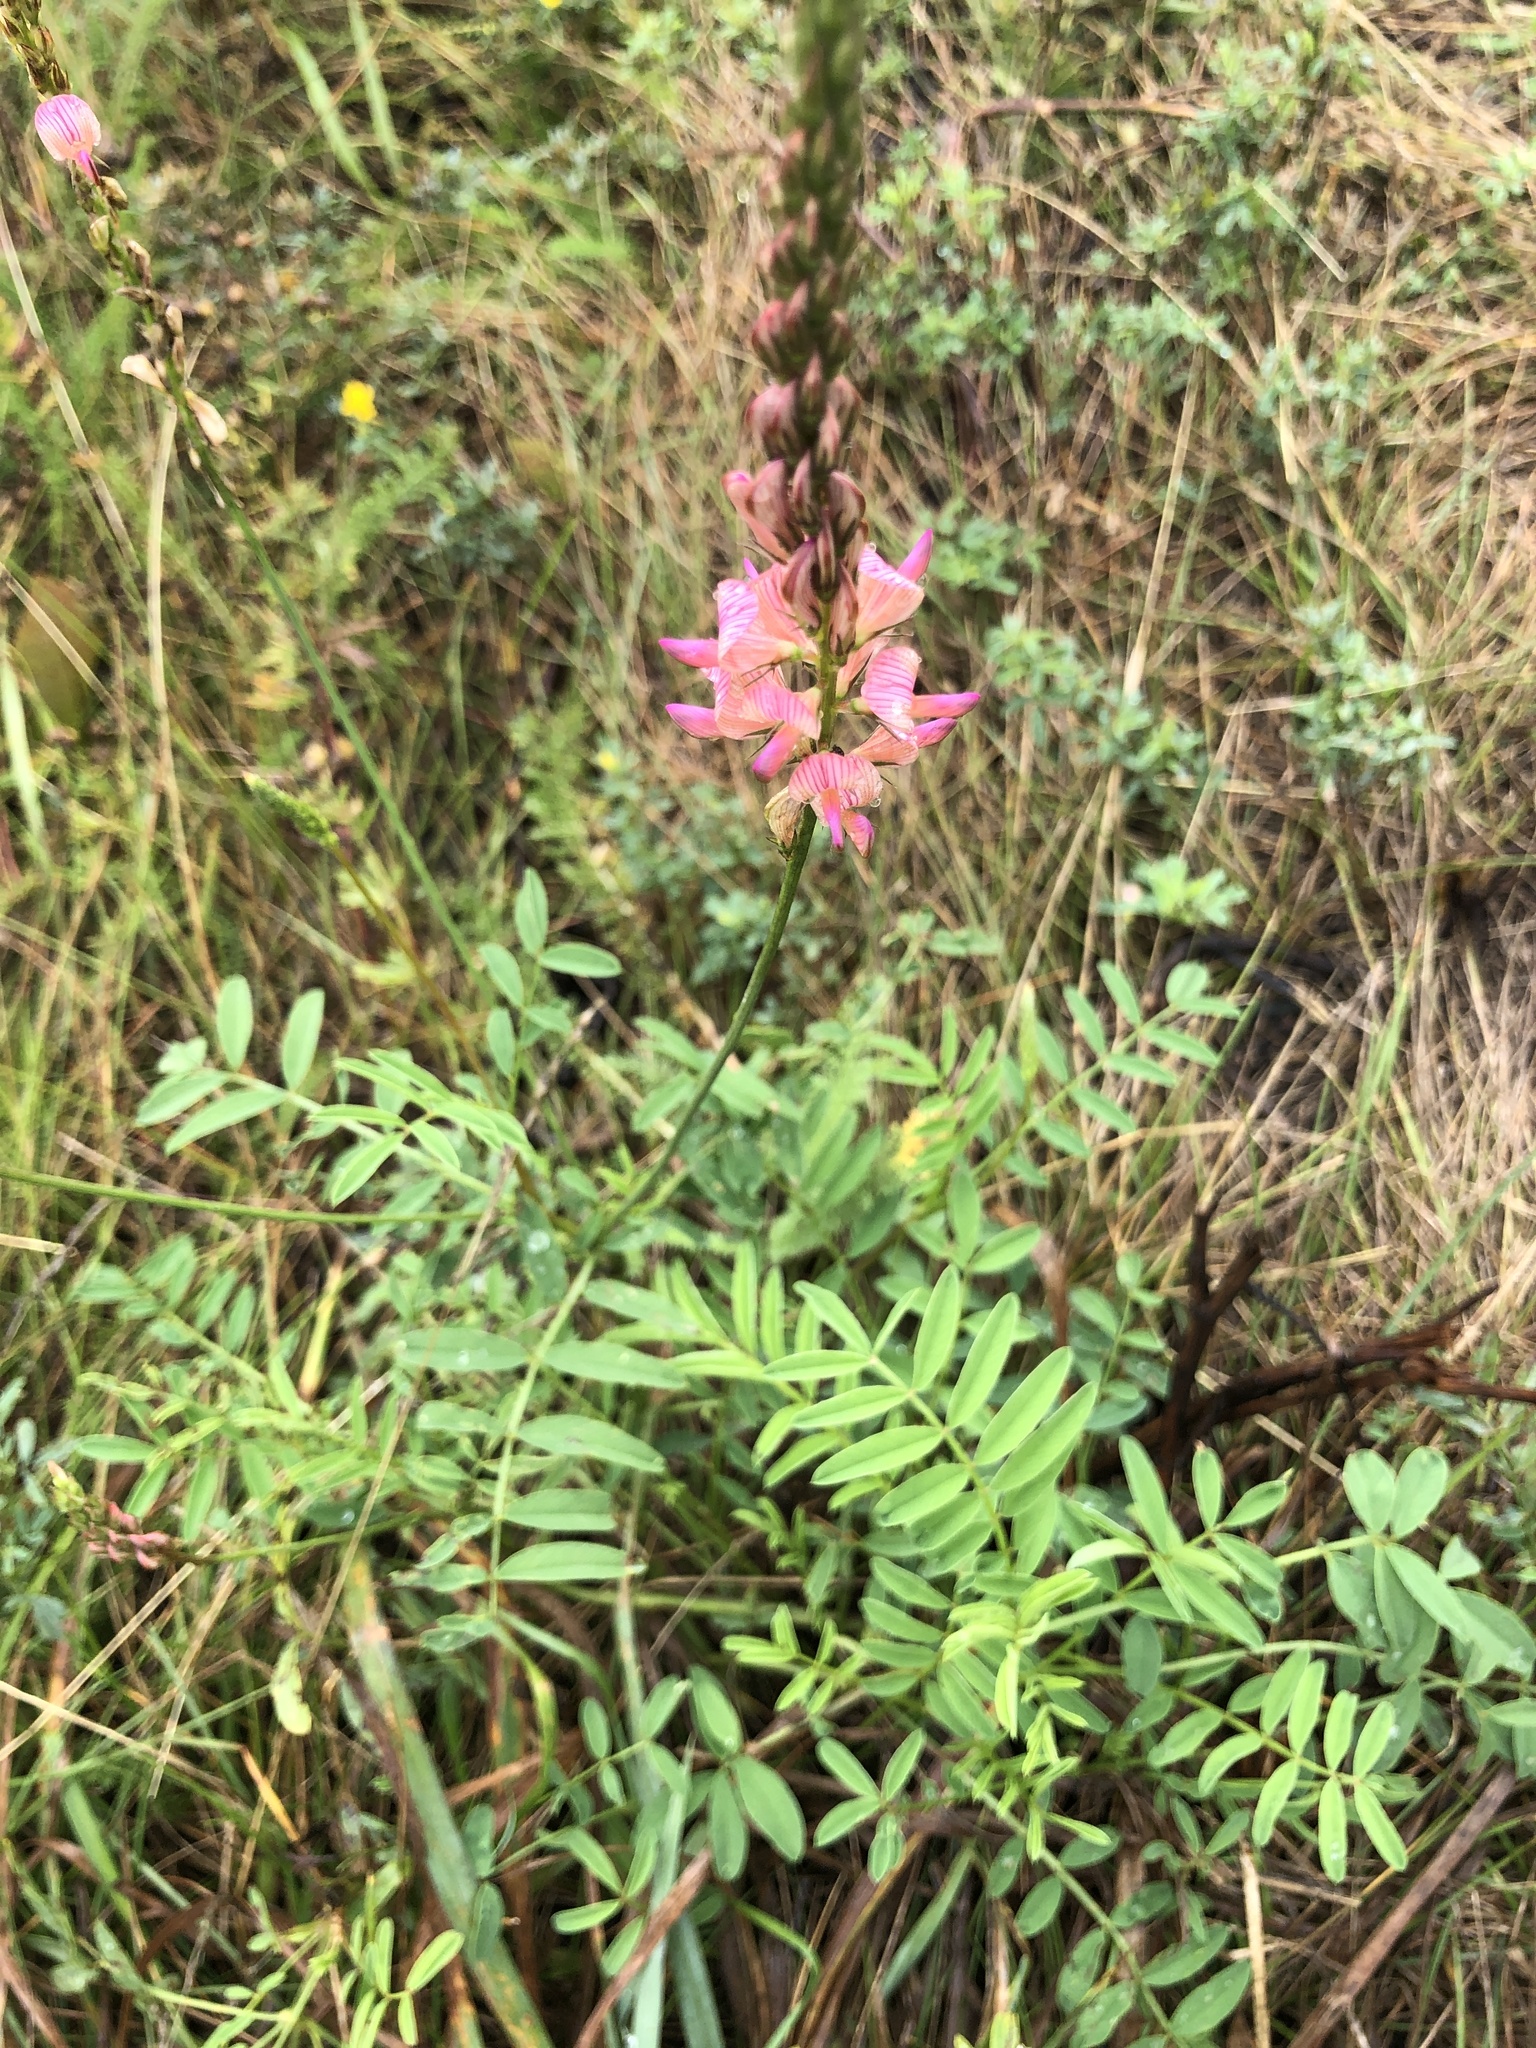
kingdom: Plantae
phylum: Tracheophyta
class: Magnoliopsida
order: Fabales
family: Fabaceae
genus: Onobrychis
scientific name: Onobrychis arenaria
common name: Sand esparcet
